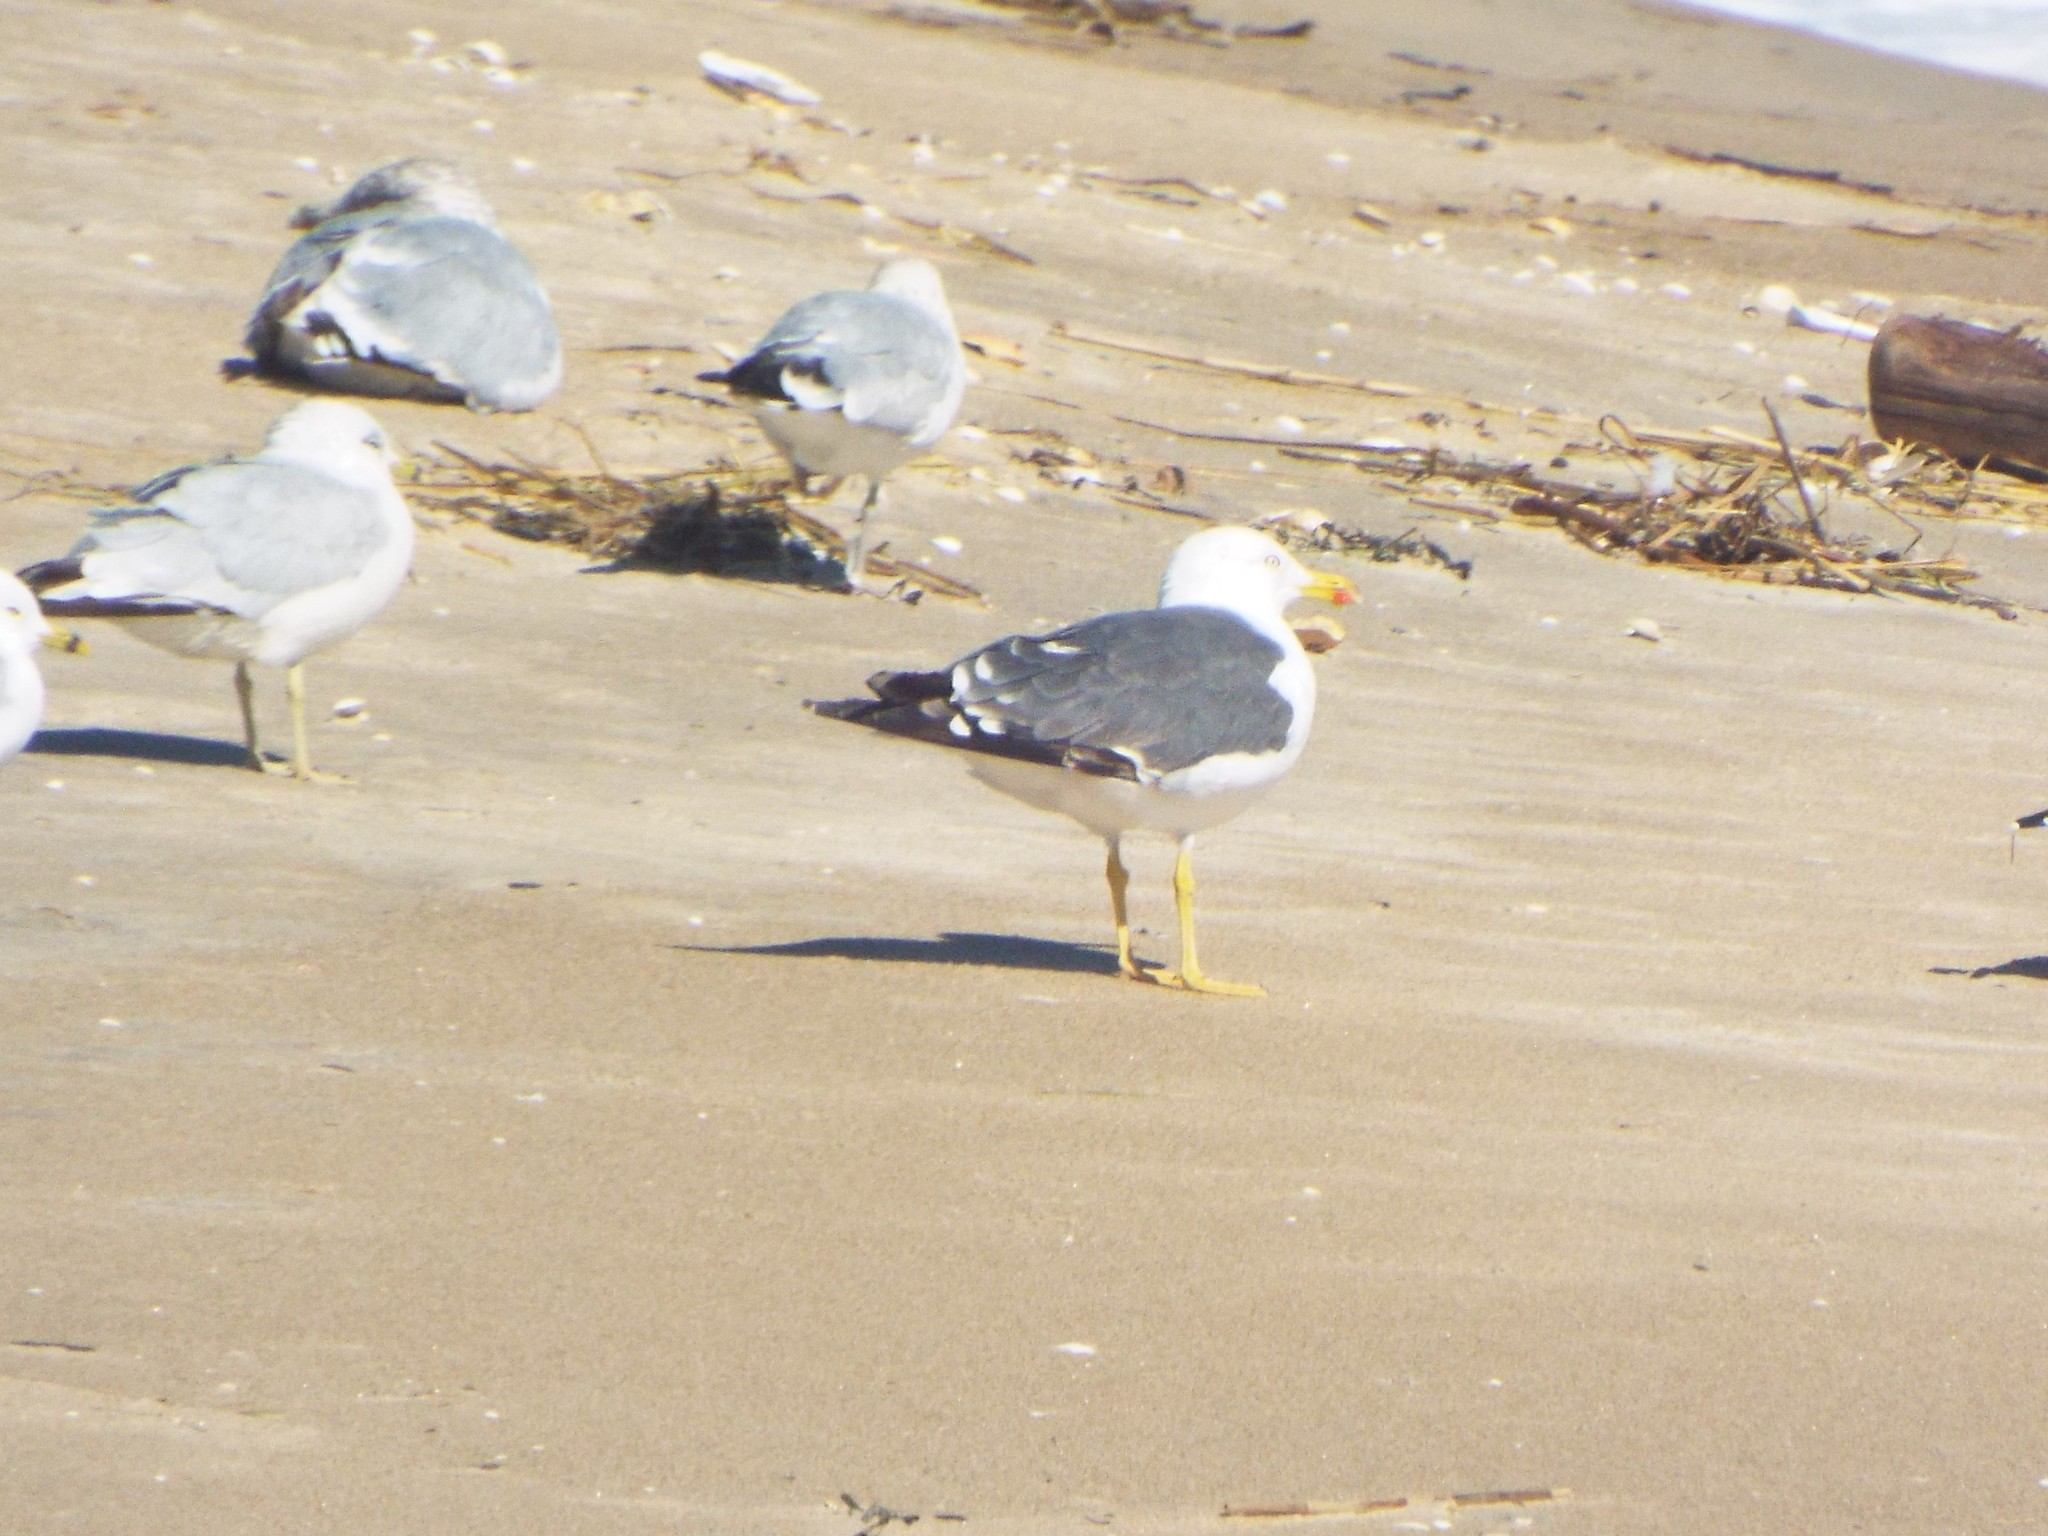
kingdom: Animalia
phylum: Chordata
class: Aves
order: Charadriiformes
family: Laridae
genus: Larus
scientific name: Larus fuscus
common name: Lesser black-backed gull
